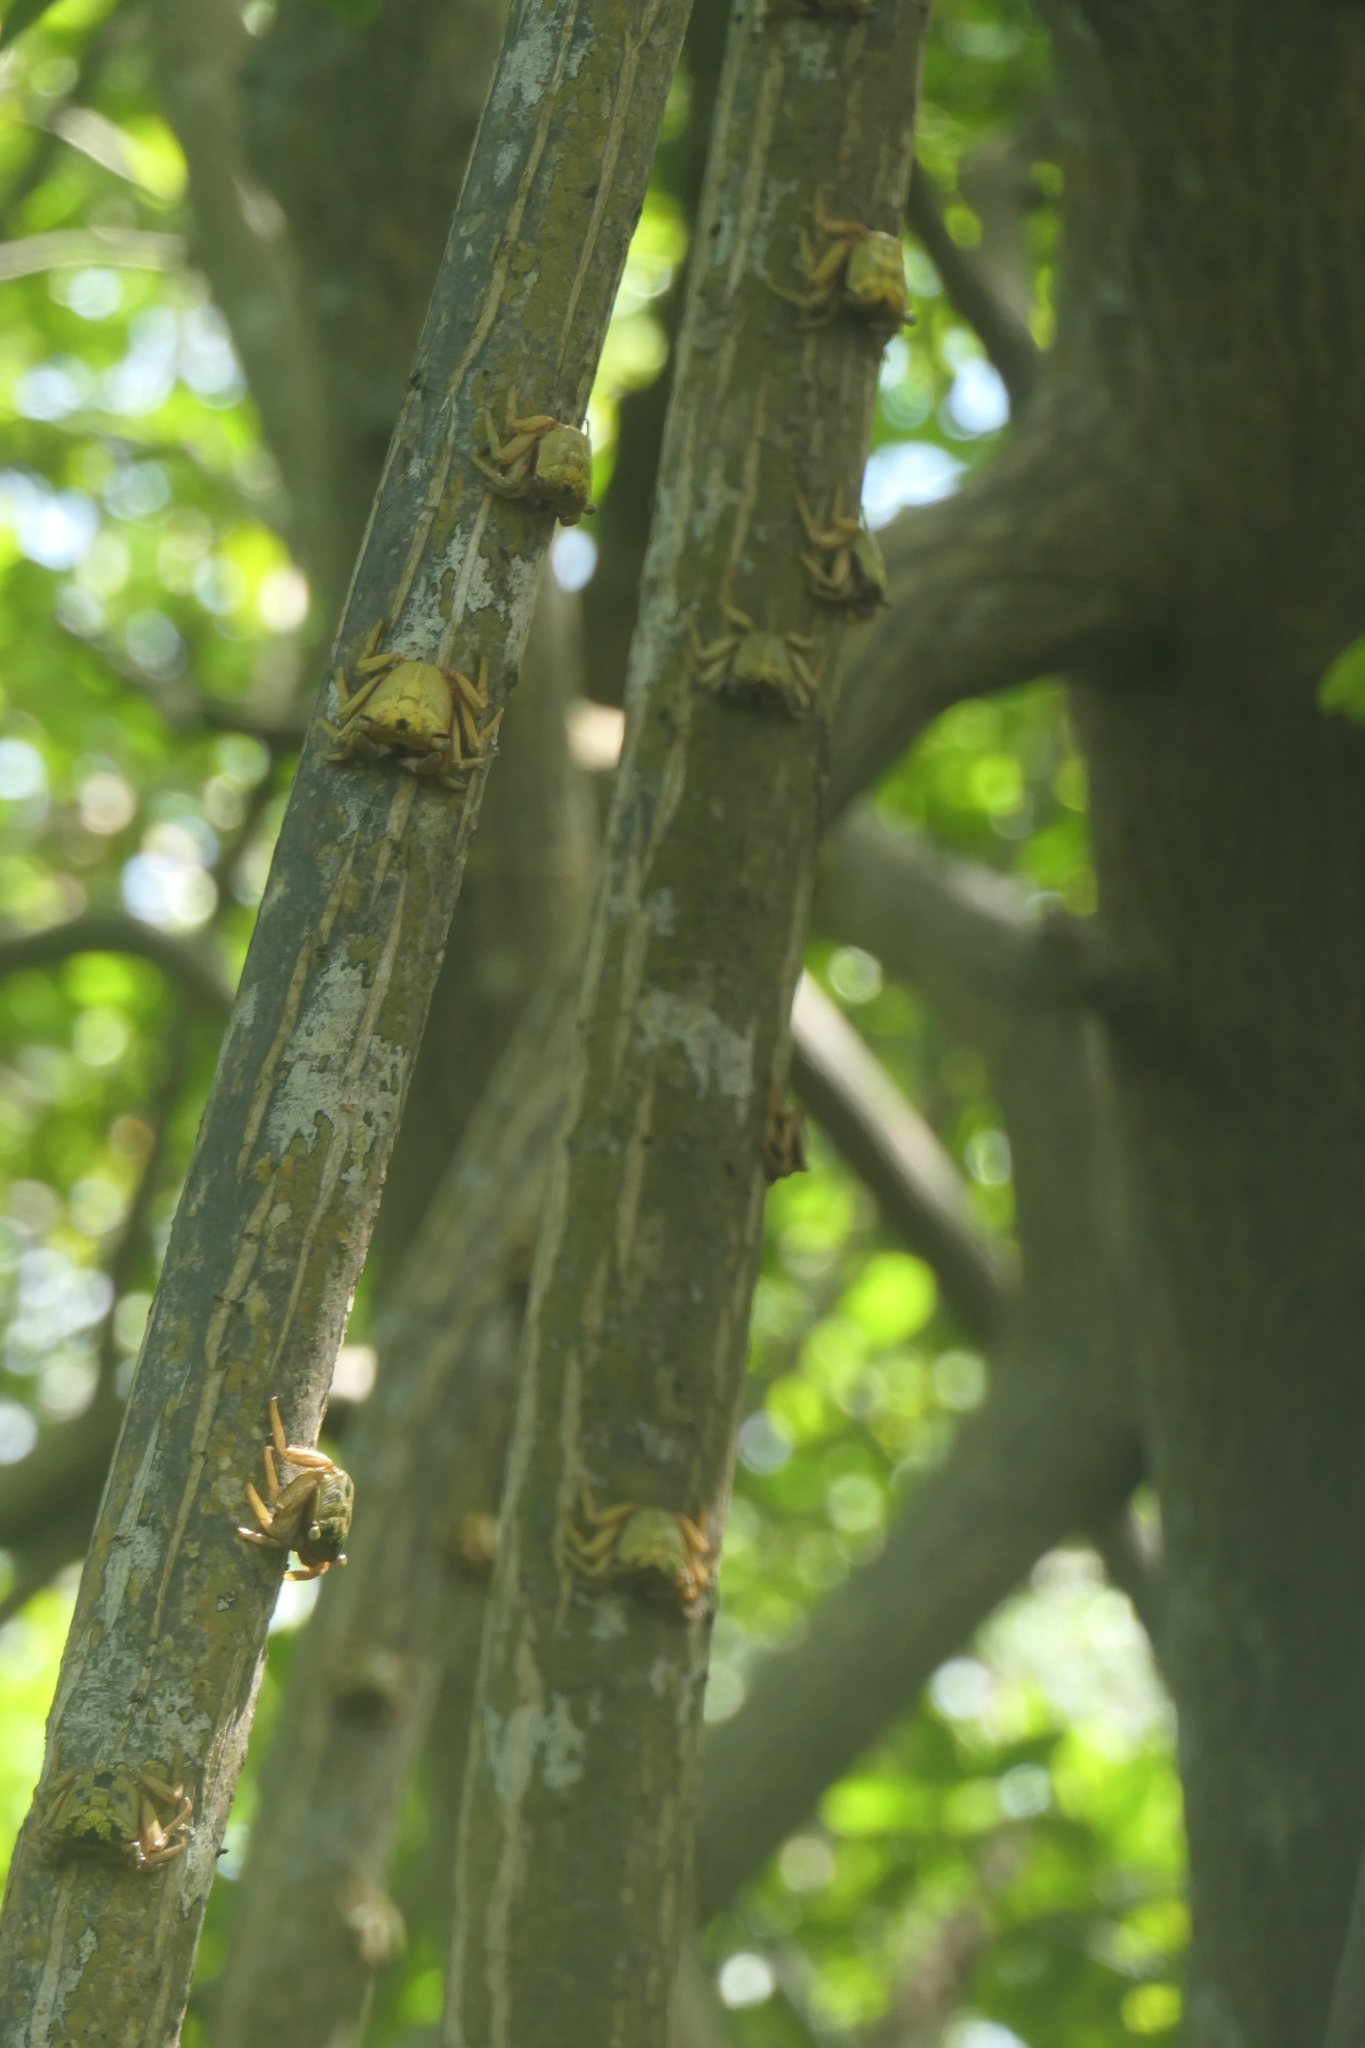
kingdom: Animalia
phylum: Arthropoda
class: Malacostraca
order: Decapoda
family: Sesarmidae
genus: Aratus
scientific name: Aratus pisonii
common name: Mangrove crab
